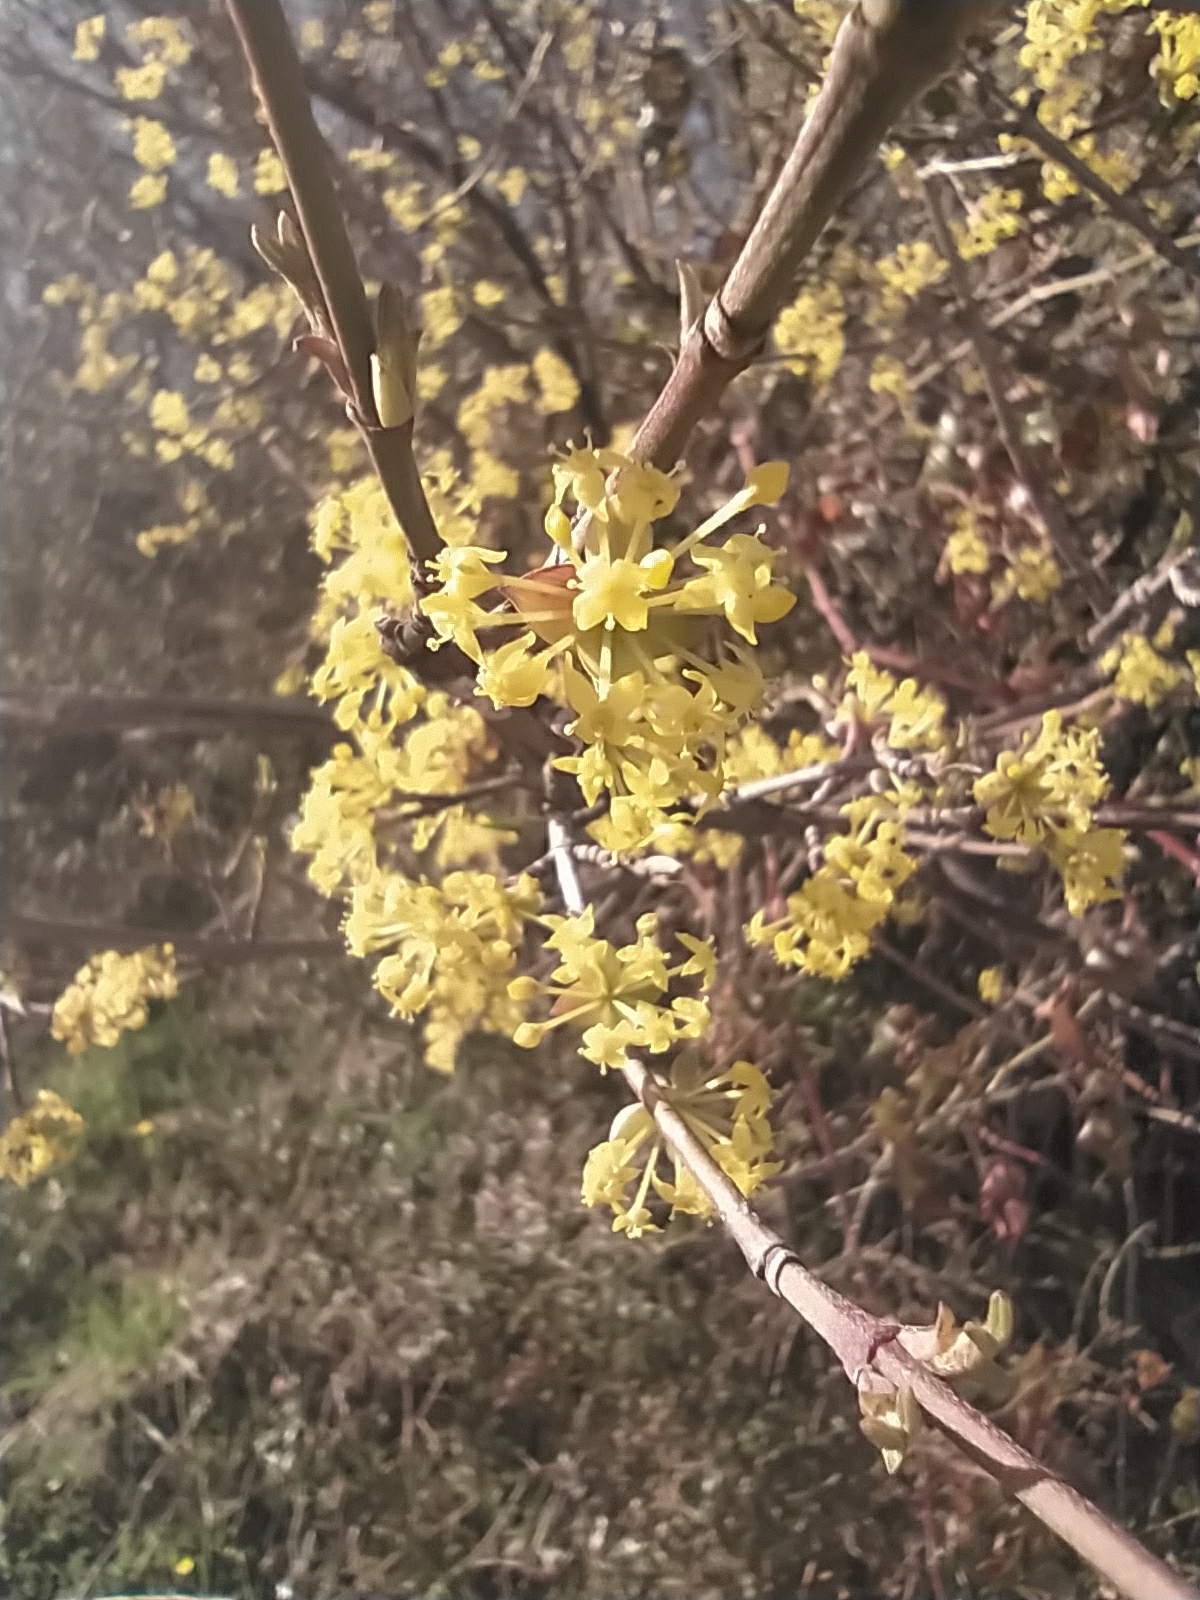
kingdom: Plantae
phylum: Tracheophyta
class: Magnoliopsida
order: Cornales
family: Cornaceae
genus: Cornus
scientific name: Cornus mas
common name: Cornelian-cherry
